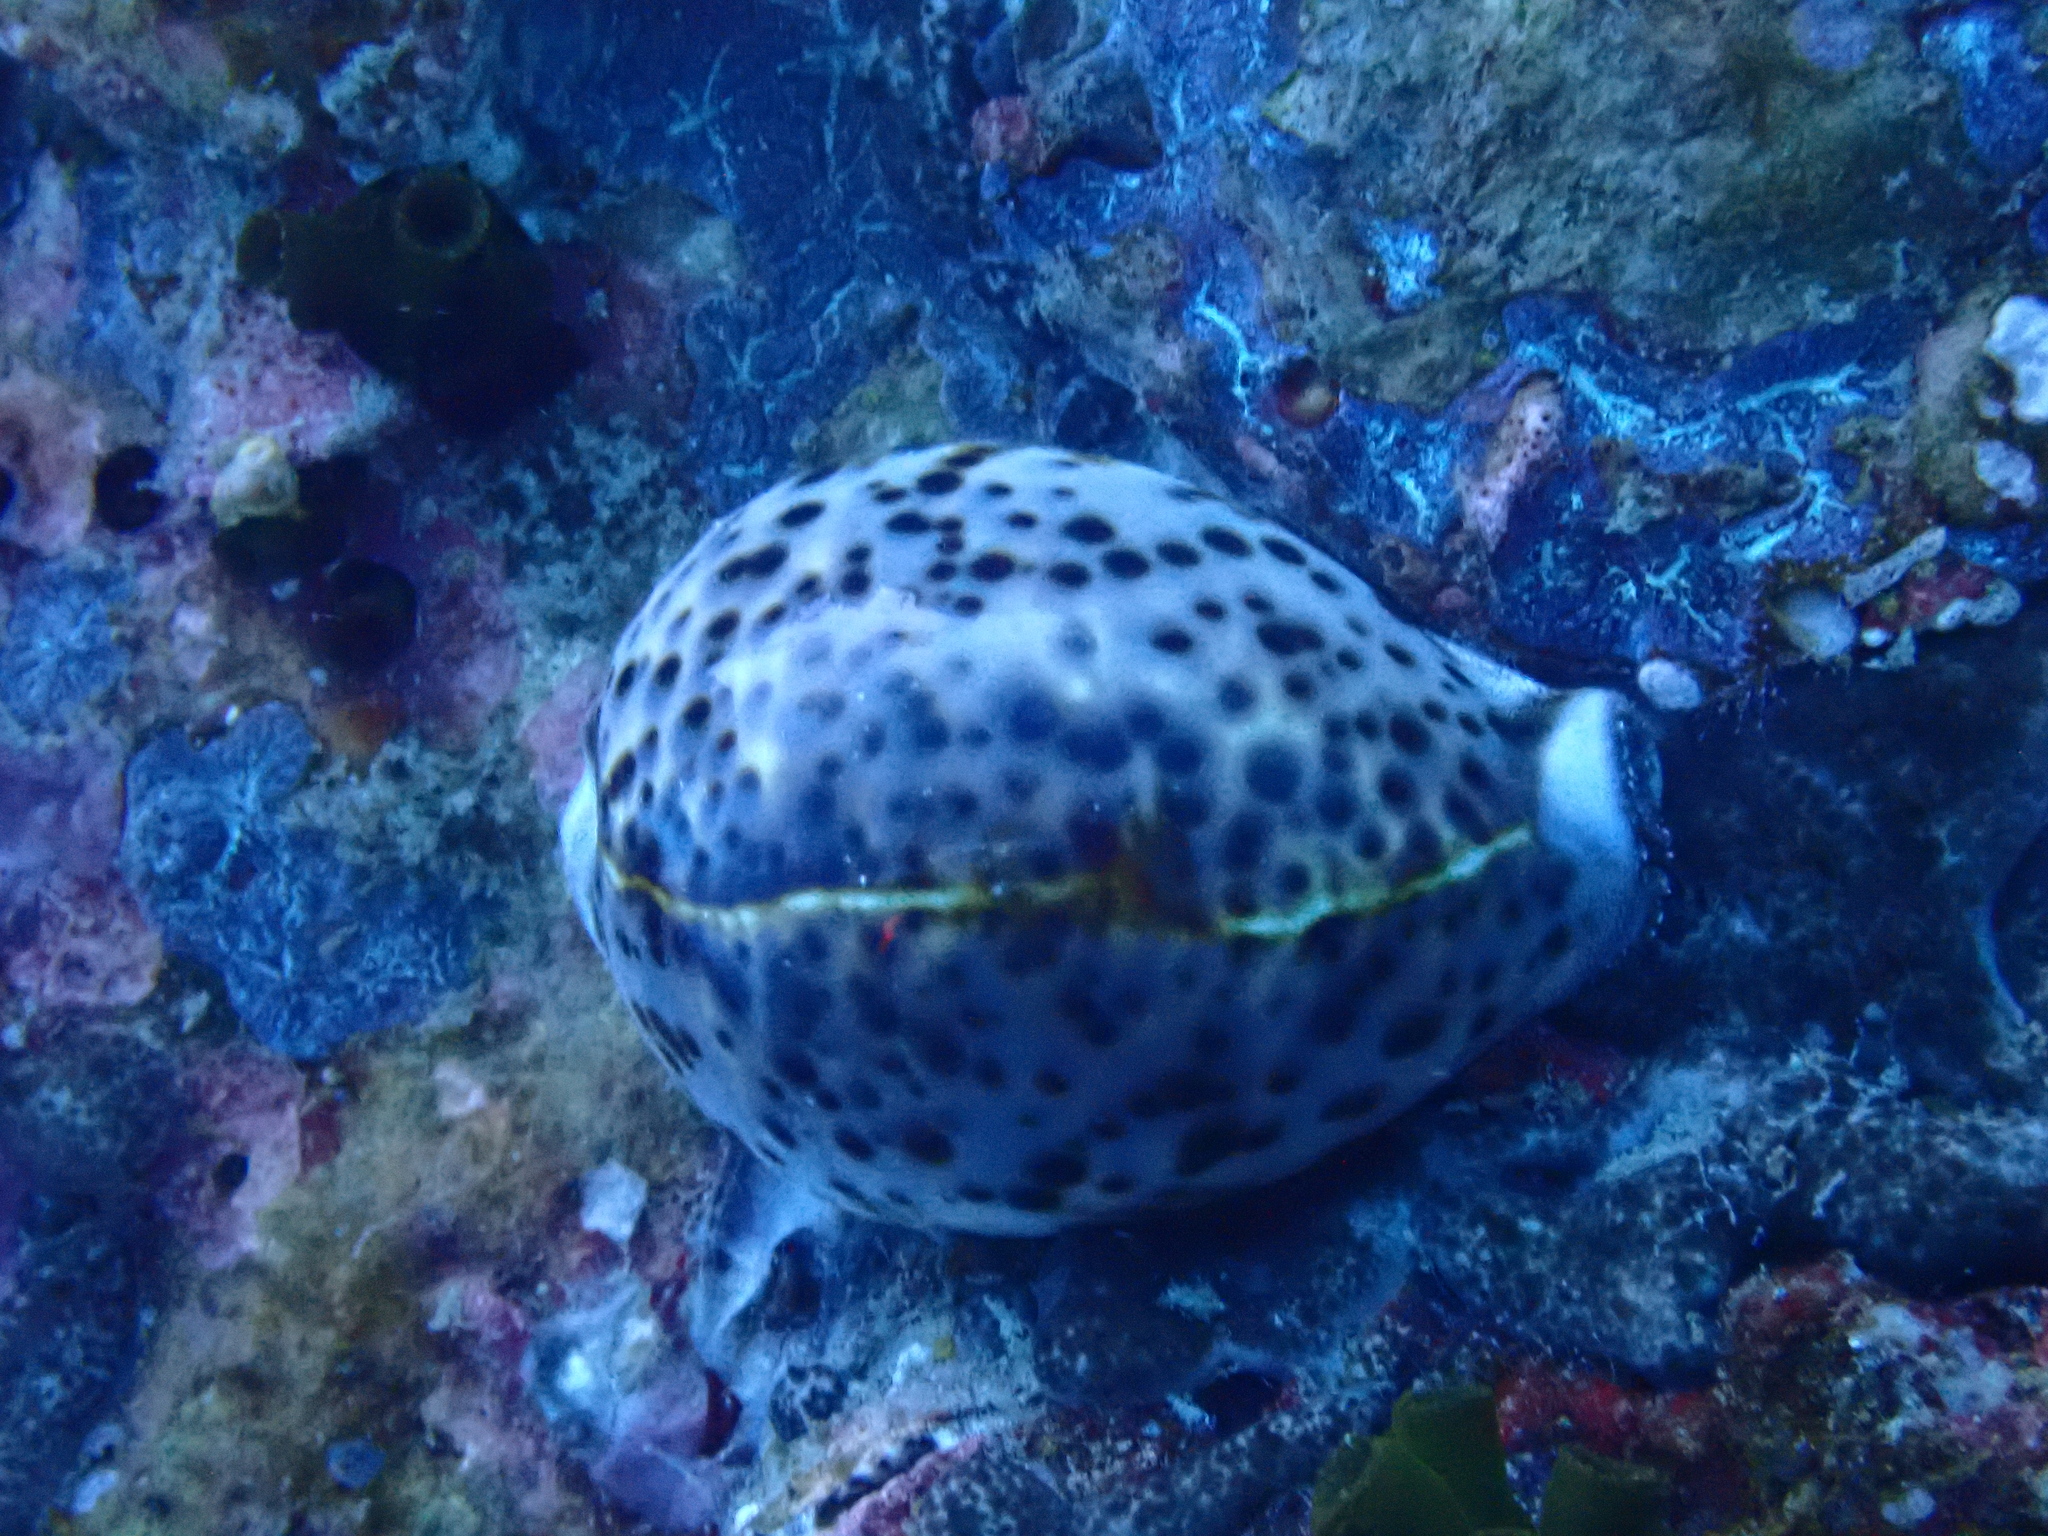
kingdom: Animalia
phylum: Mollusca
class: Gastropoda
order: Littorinimorpha
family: Cypraeidae
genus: Cypraea
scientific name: Cypraea tigris
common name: Tiger cowrie
